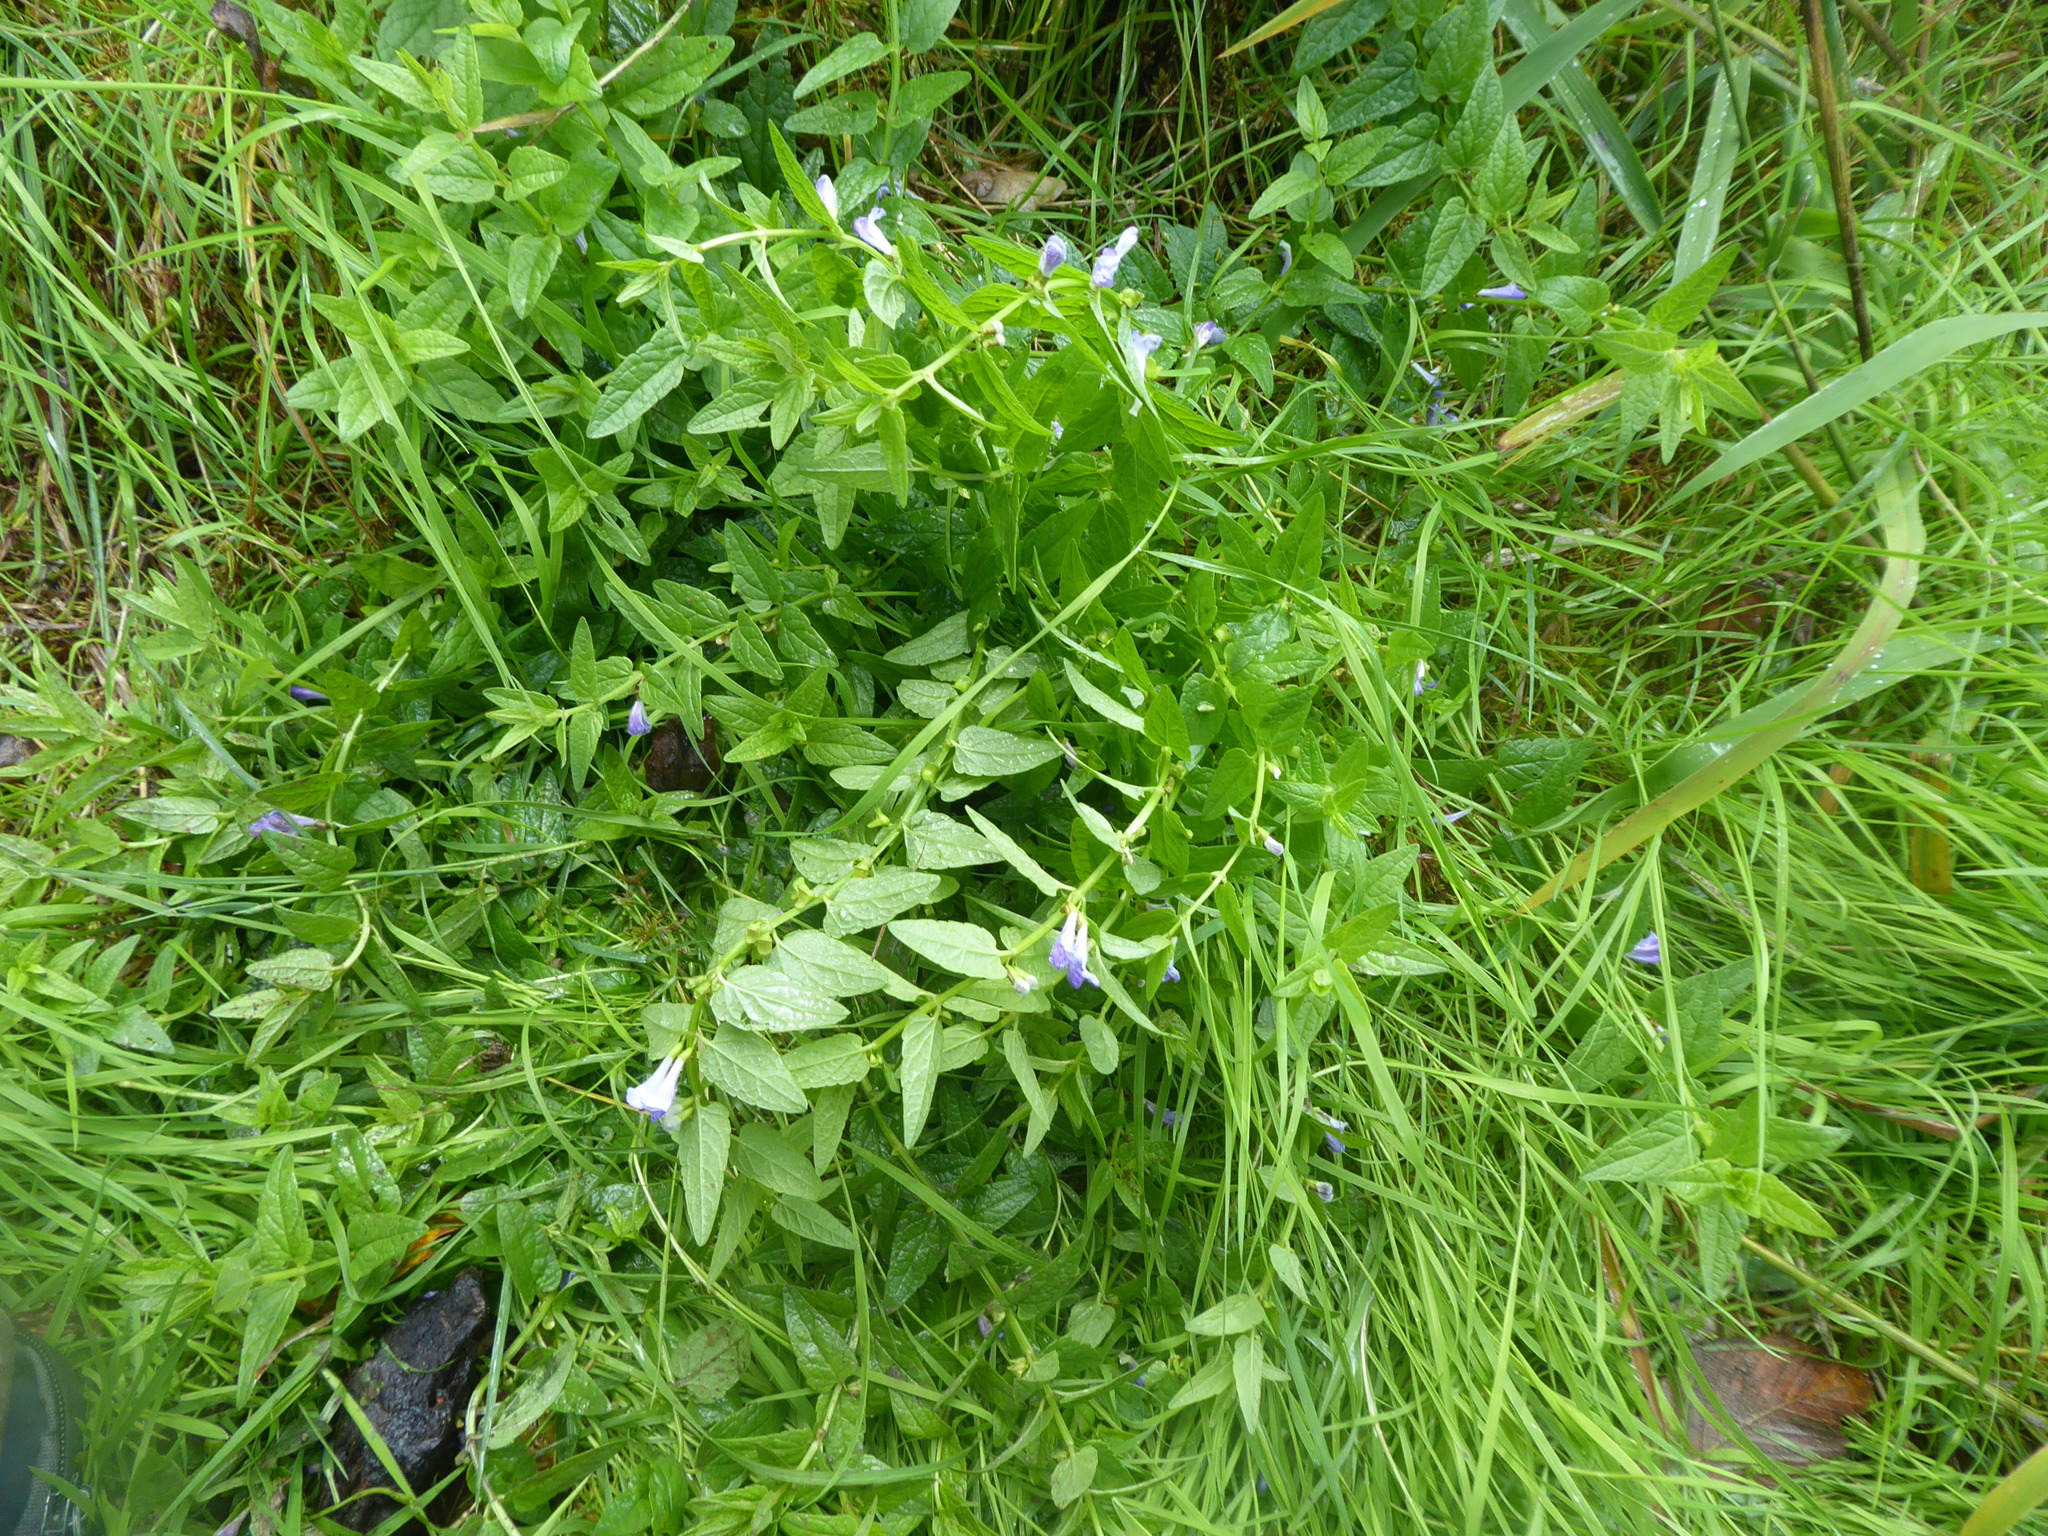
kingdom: Plantae
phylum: Tracheophyta
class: Magnoliopsida
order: Lamiales
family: Lamiaceae
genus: Scutellaria
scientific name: Scutellaria galericulata
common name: Skullcap
